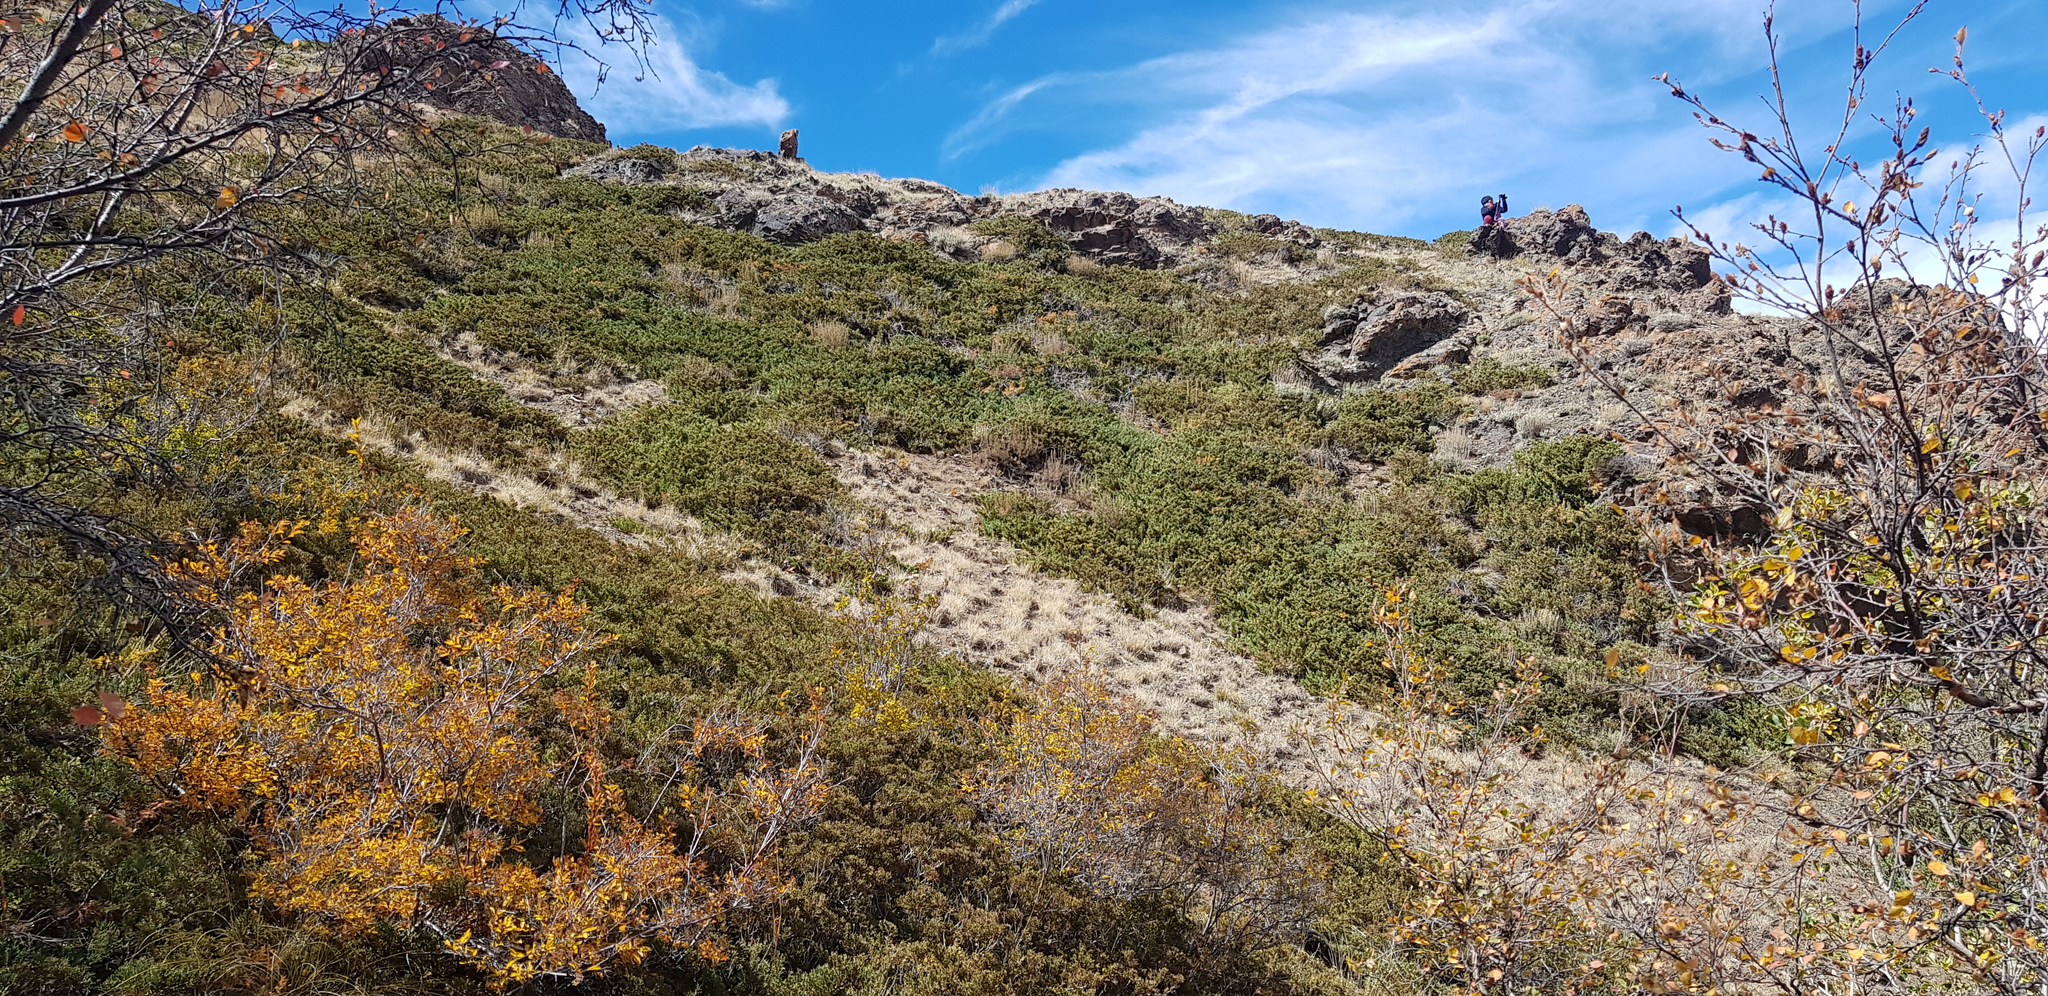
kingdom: Plantae
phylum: Tracheophyta
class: Pinopsida
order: Pinales
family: Cupressaceae
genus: Juniperus
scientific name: Juniperus pseudosabina
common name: Turkestan juniper
